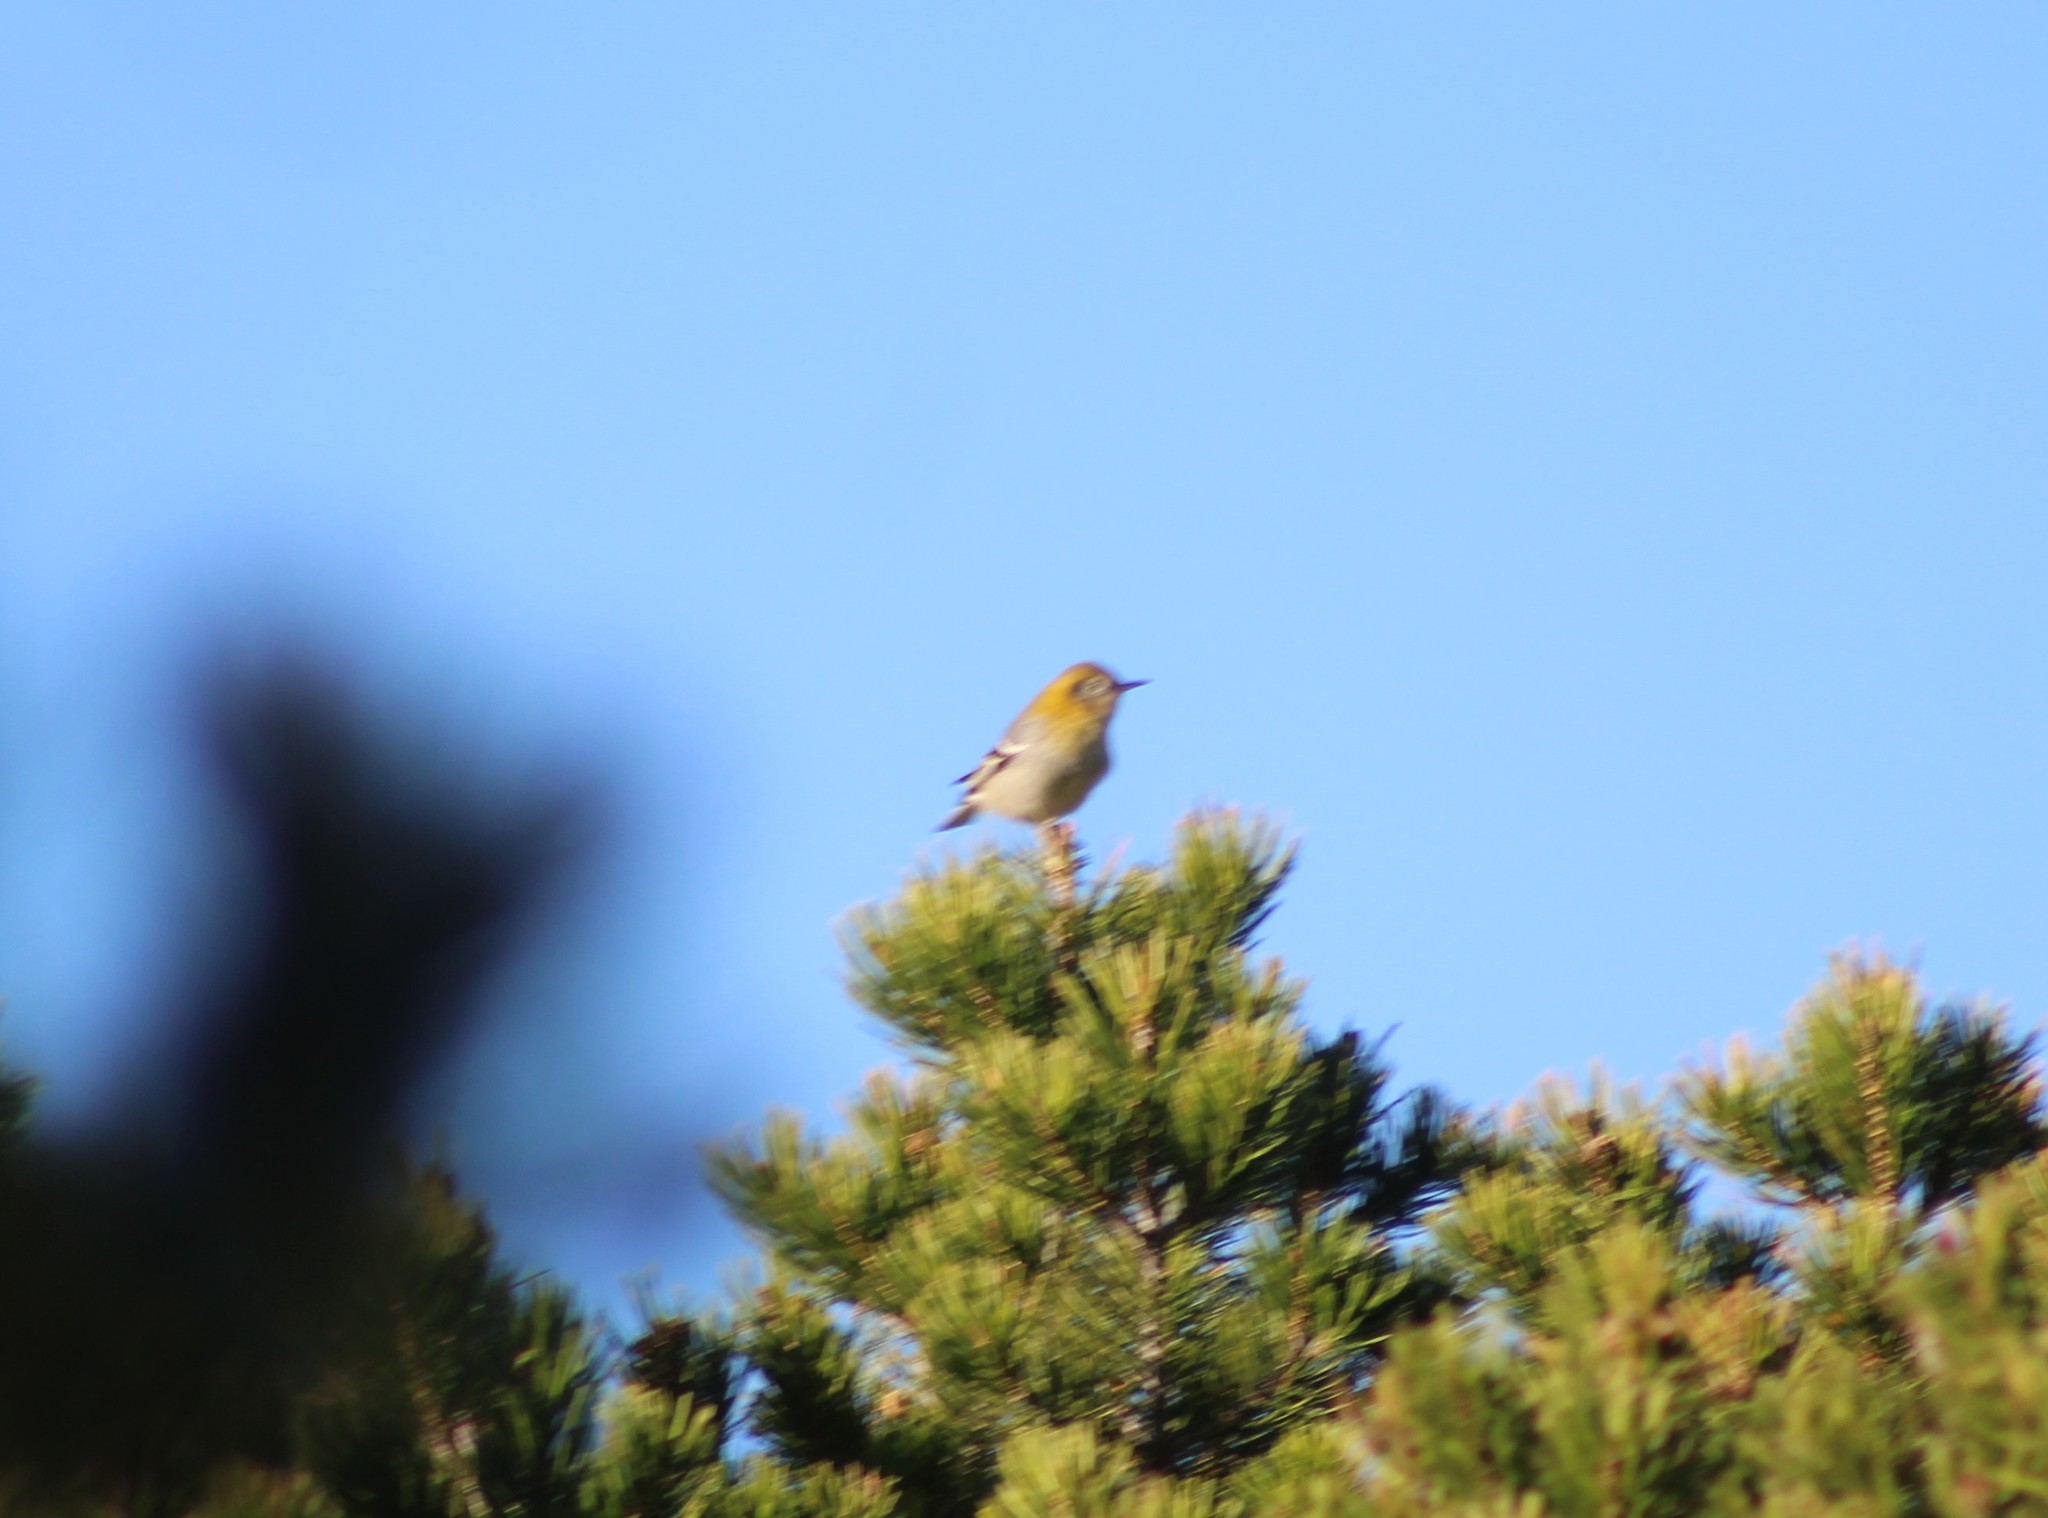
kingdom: Animalia
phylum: Chordata
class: Aves
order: Passeriformes
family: Peucedramidae
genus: Peucedramus
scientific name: Peucedramus taeniatus
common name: Olive warbler
